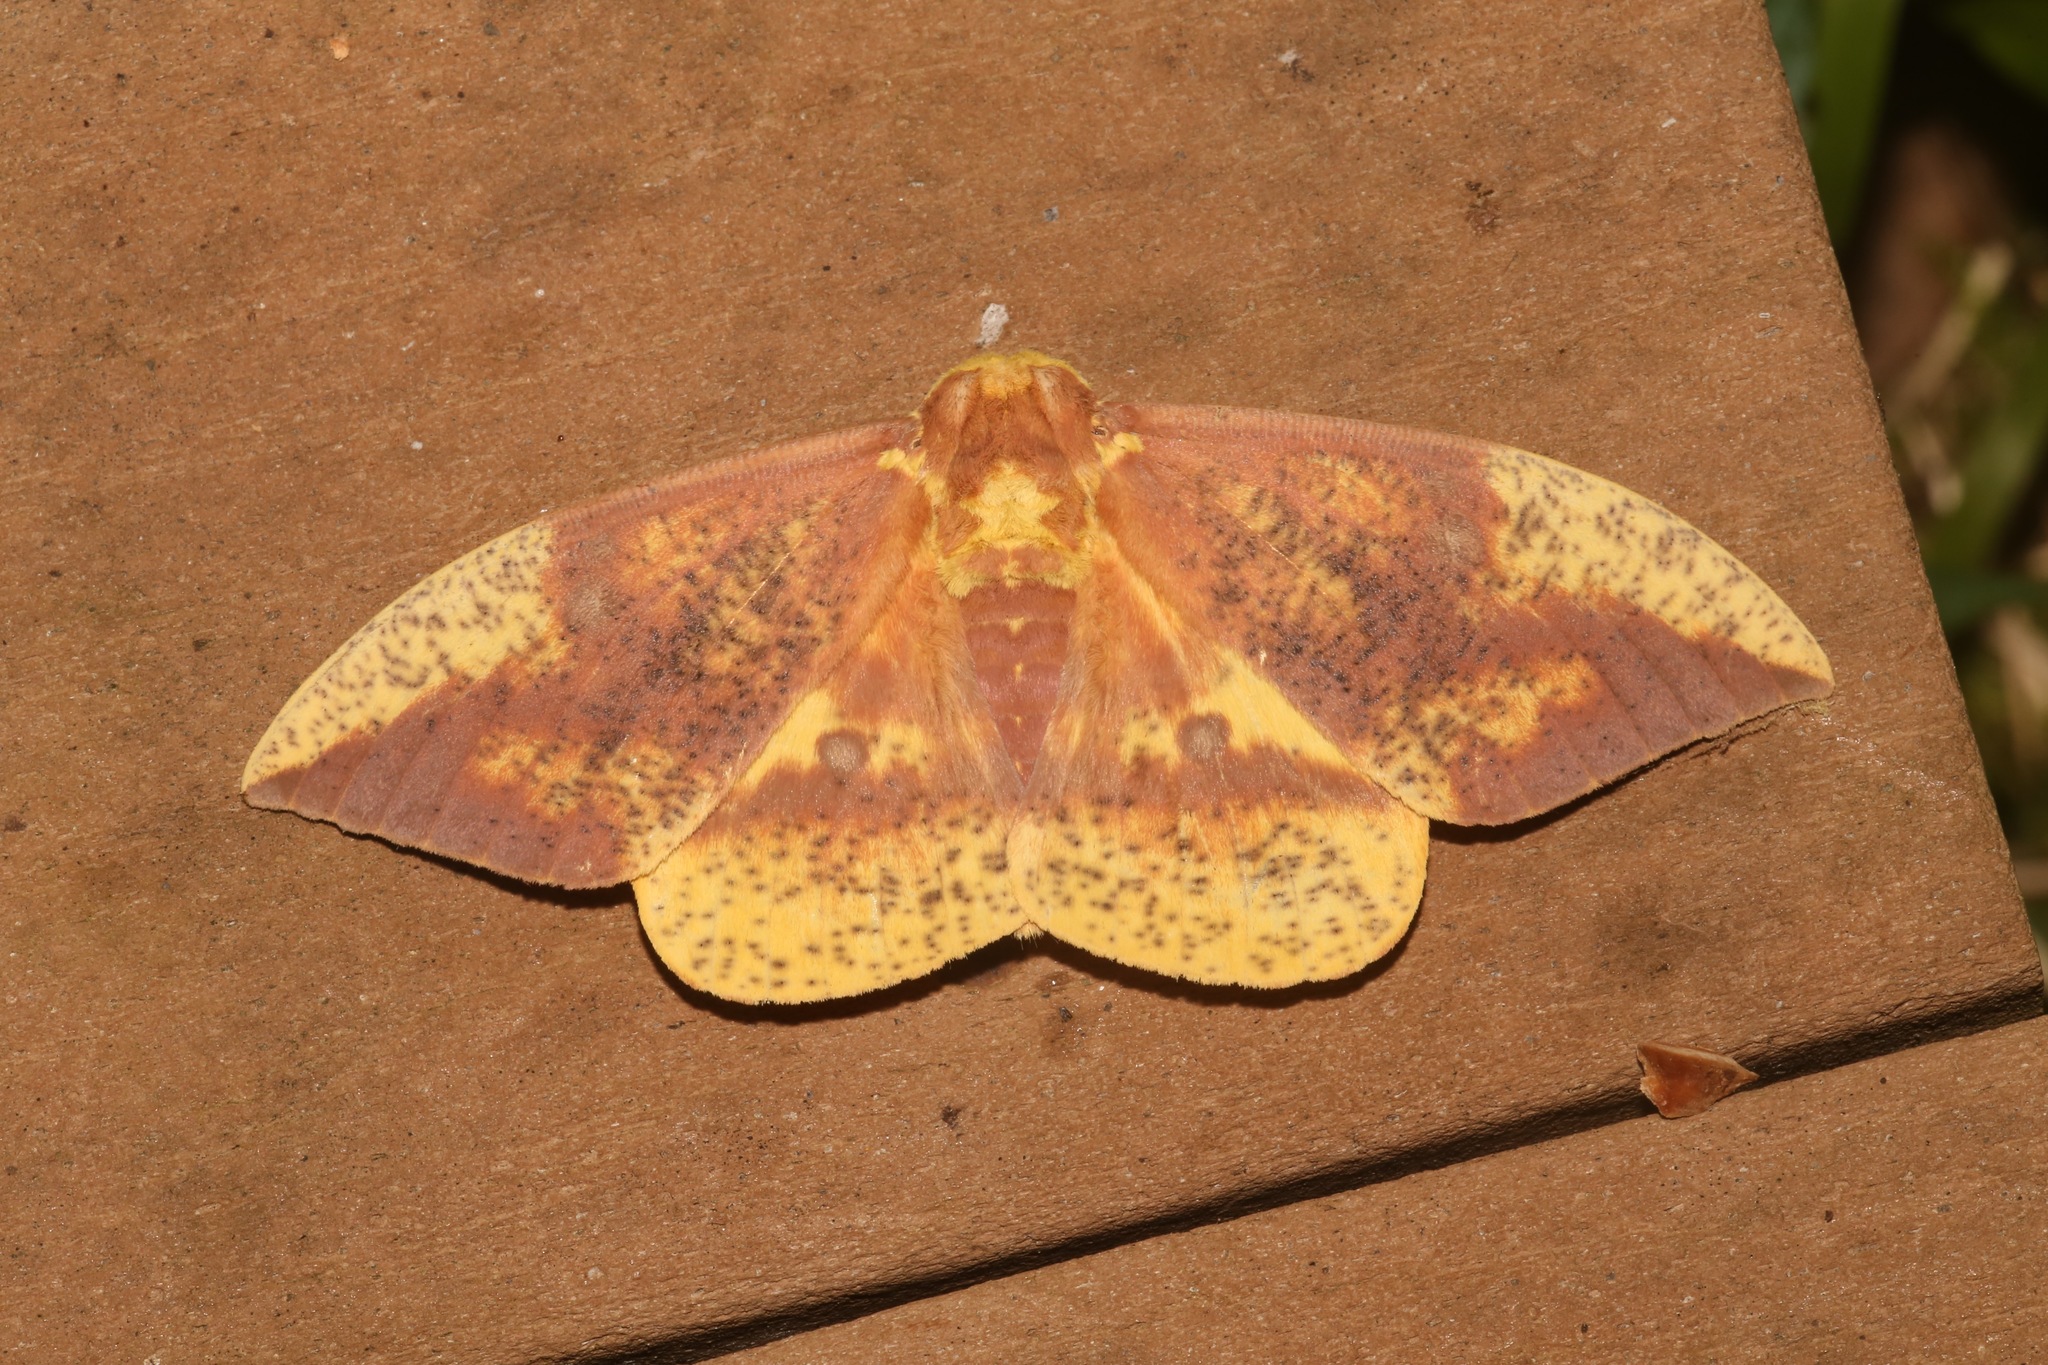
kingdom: Animalia
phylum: Arthropoda
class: Insecta
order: Lepidoptera
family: Saturniidae
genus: Eacles
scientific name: Eacles imperialis
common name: Imperial moth
